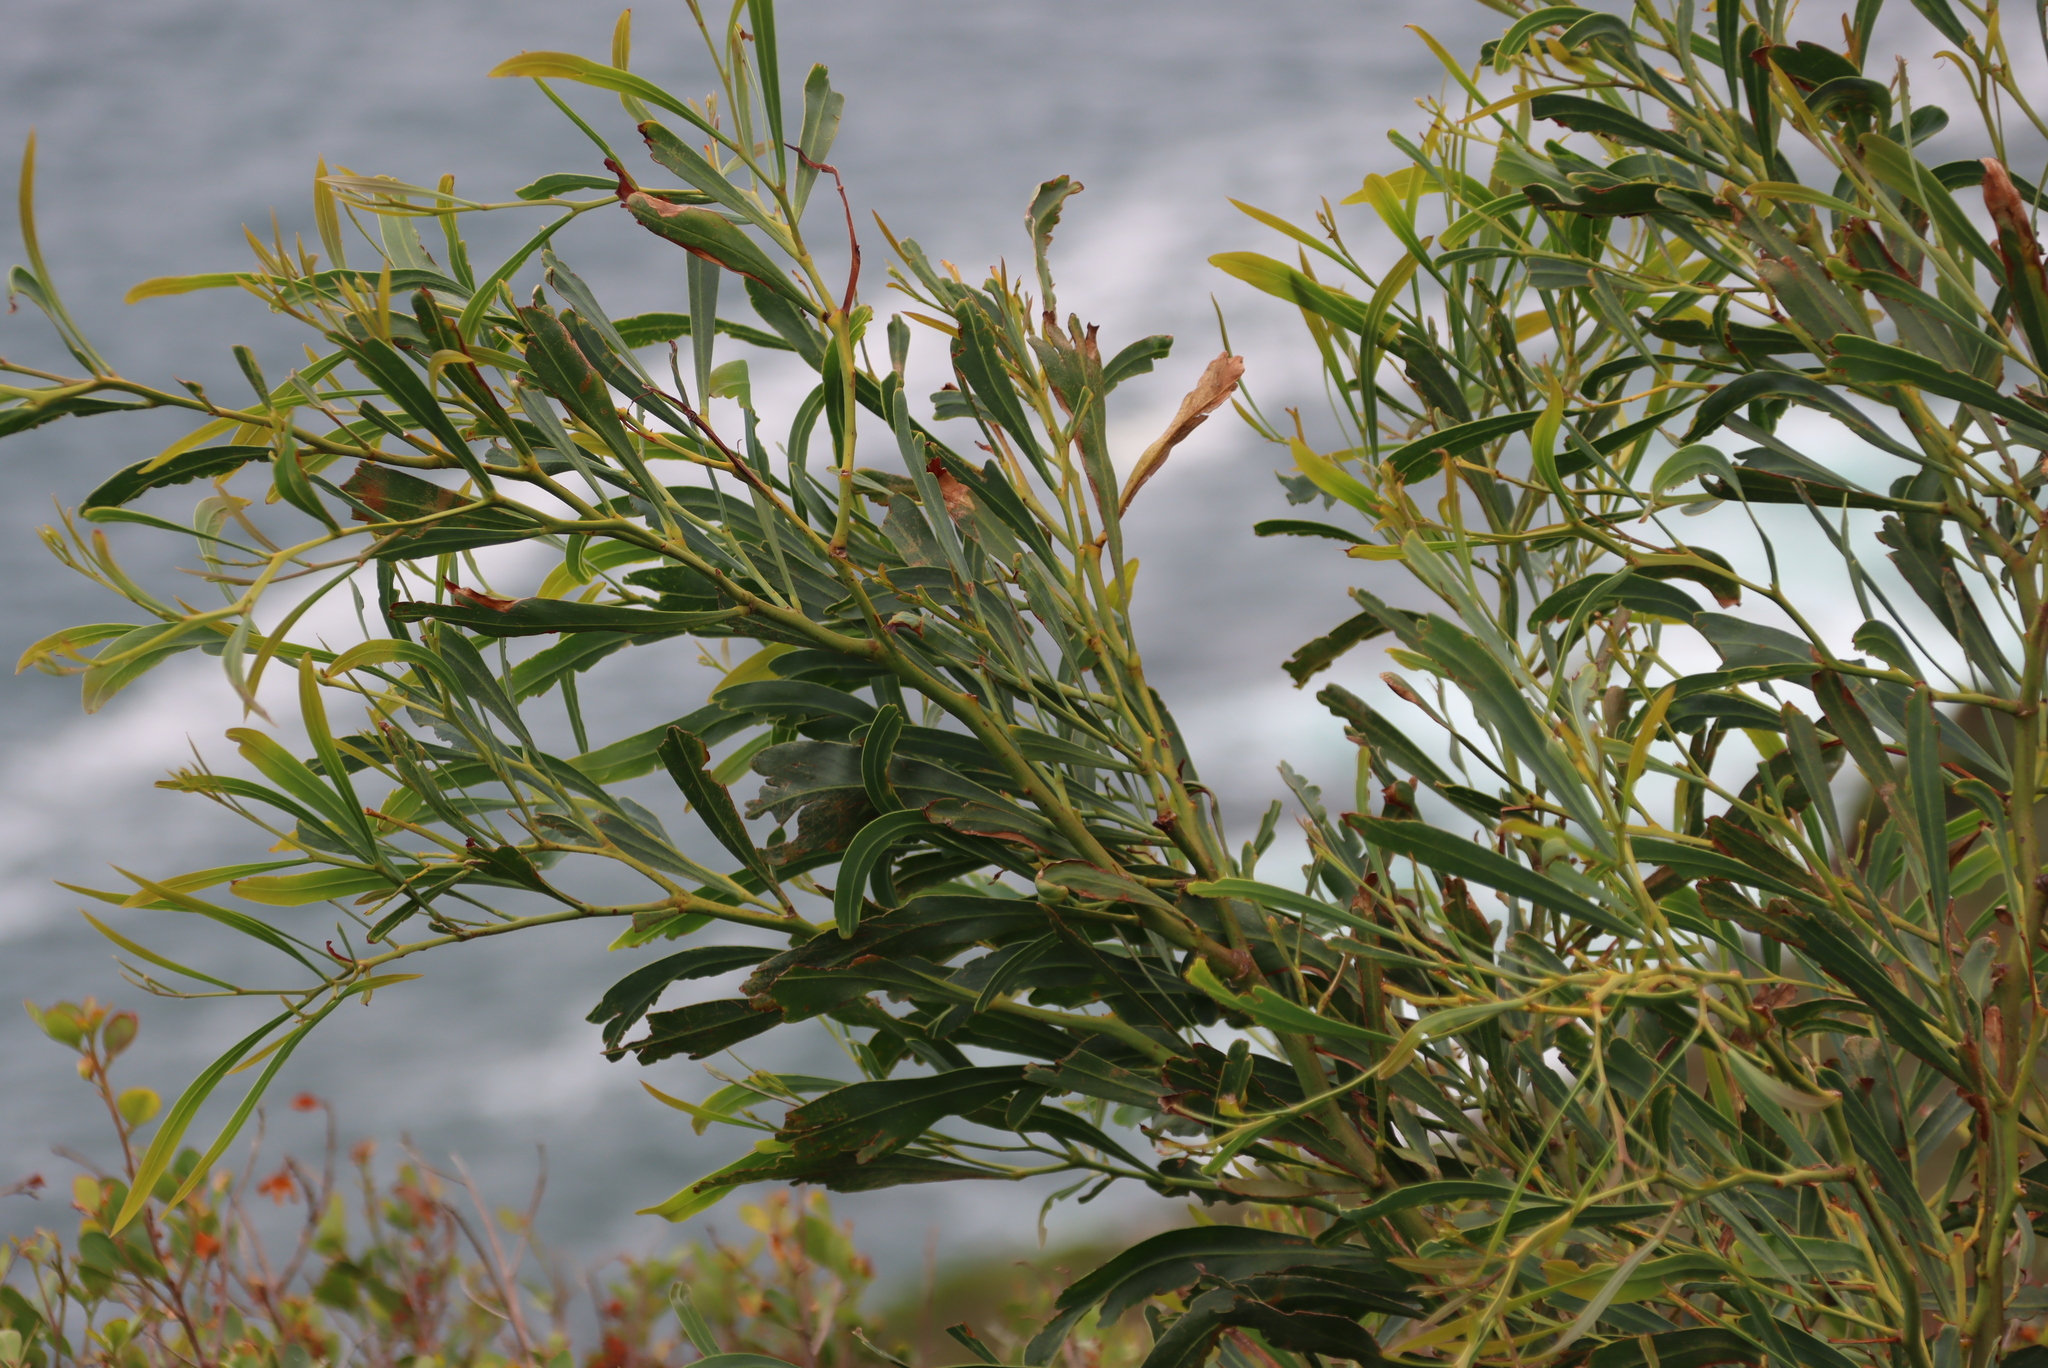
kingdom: Plantae
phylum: Tracheophyta
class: Magnoliopsida
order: Fabales
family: Fabaceae
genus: Acacia
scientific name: Acacia saligna
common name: Orange wattle
